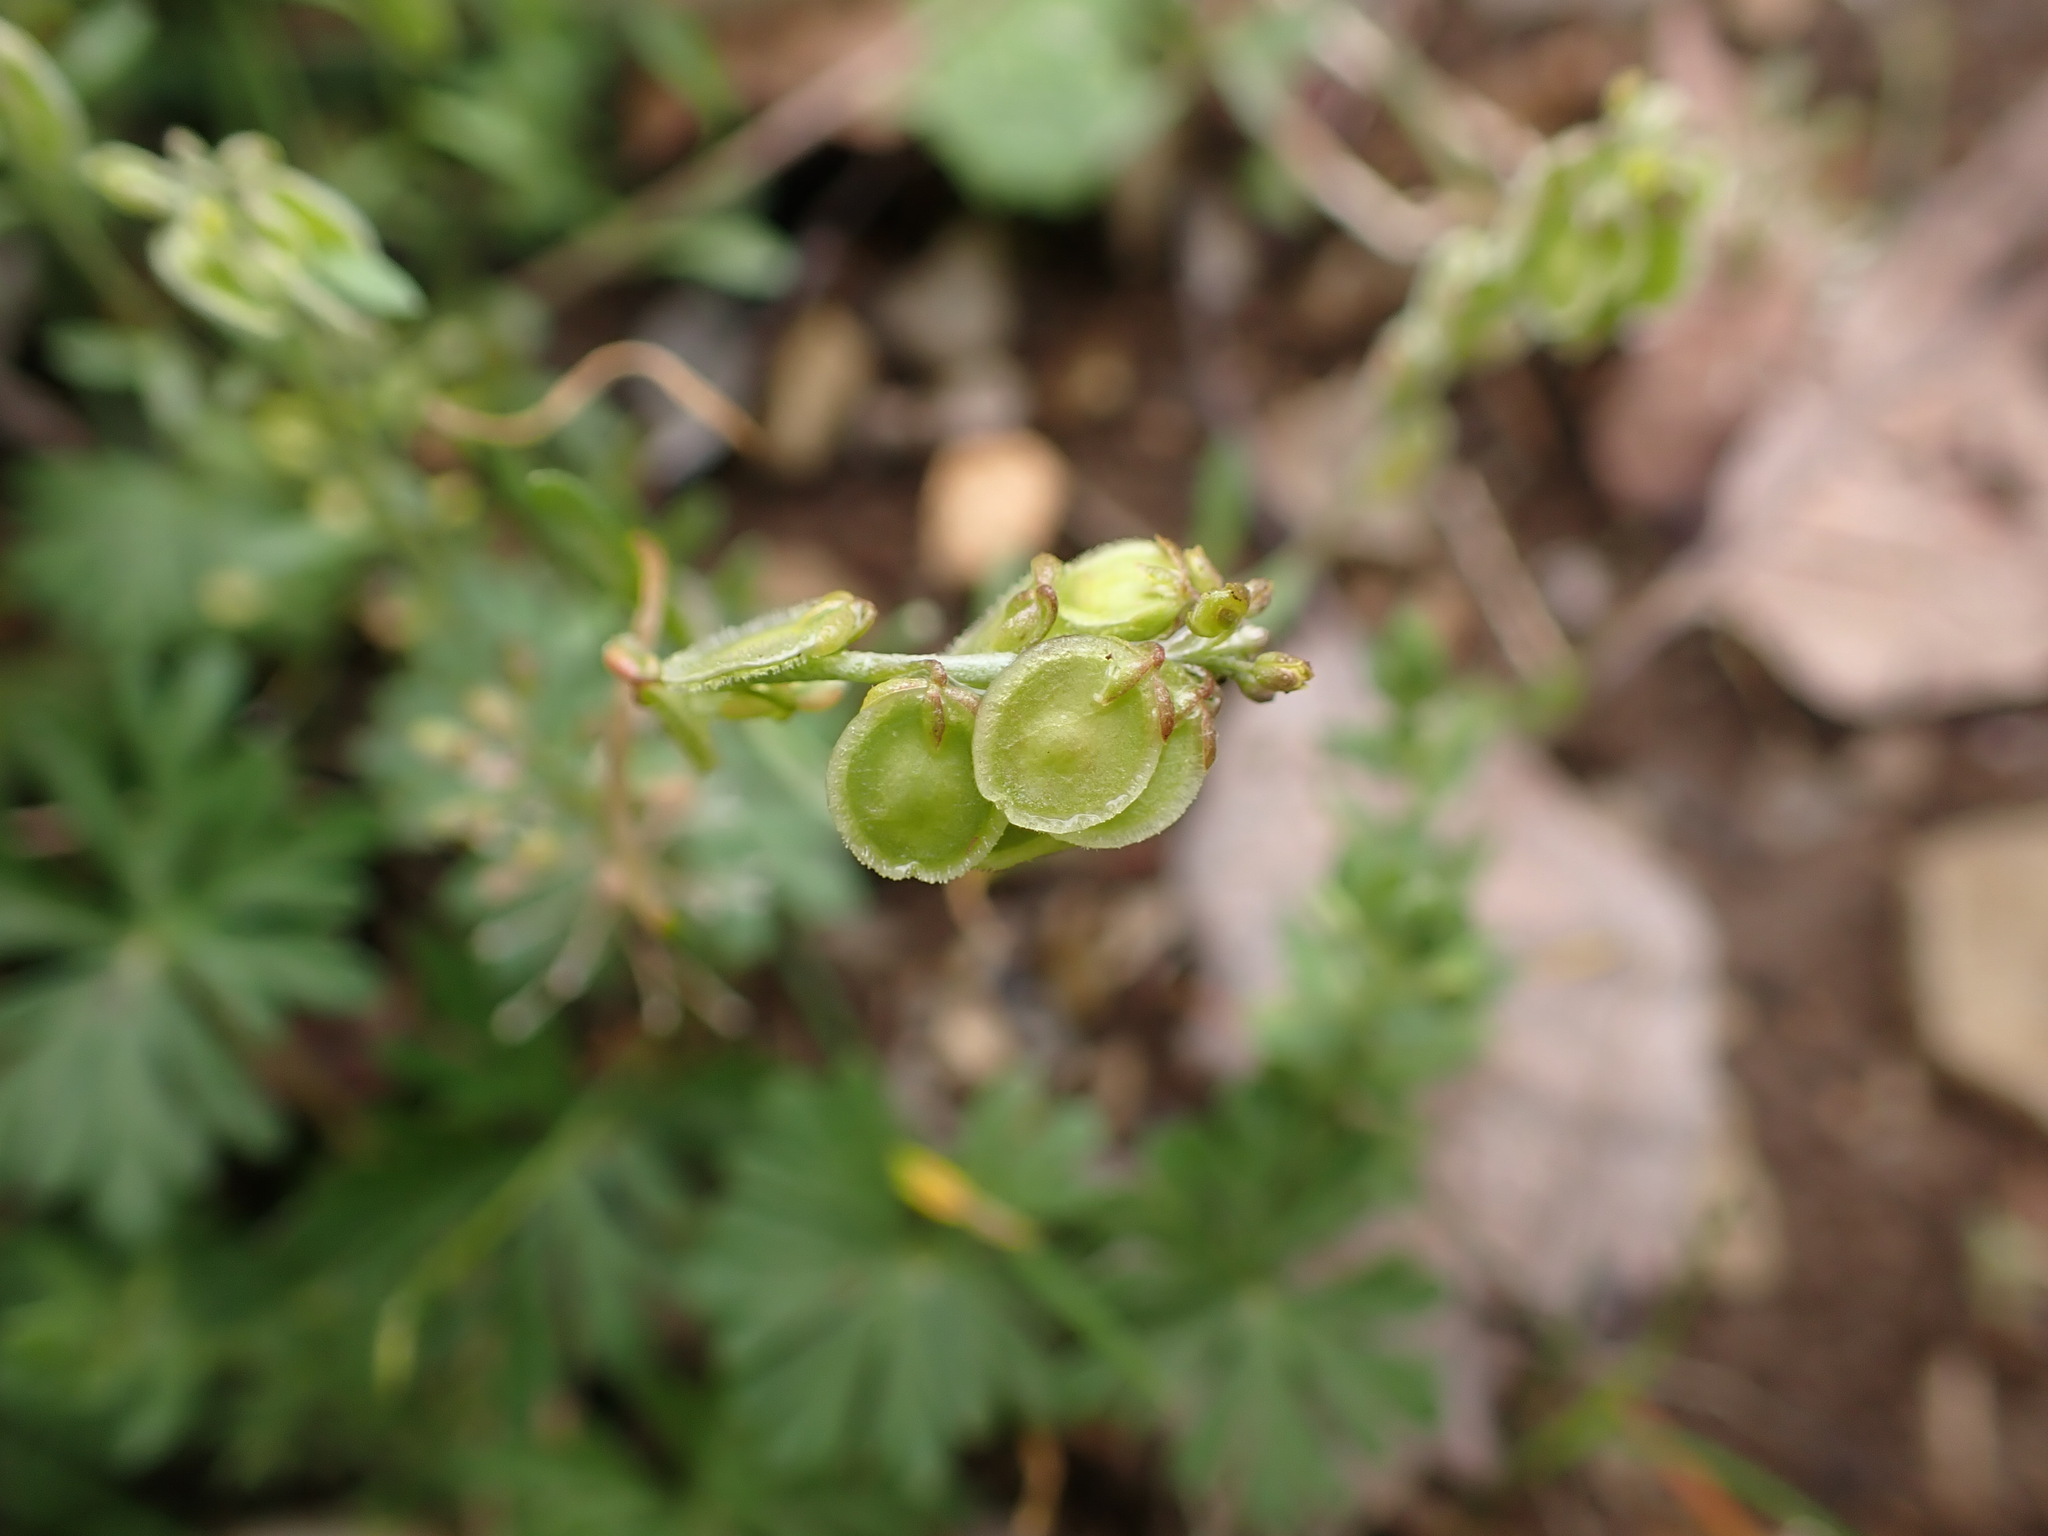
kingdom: Plantae
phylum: Tracheophyta
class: Magnoliopsida
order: Brassicales
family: Brassicaceae
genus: Clypeola
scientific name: Clypeola jonthlaspi
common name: Disk cress
